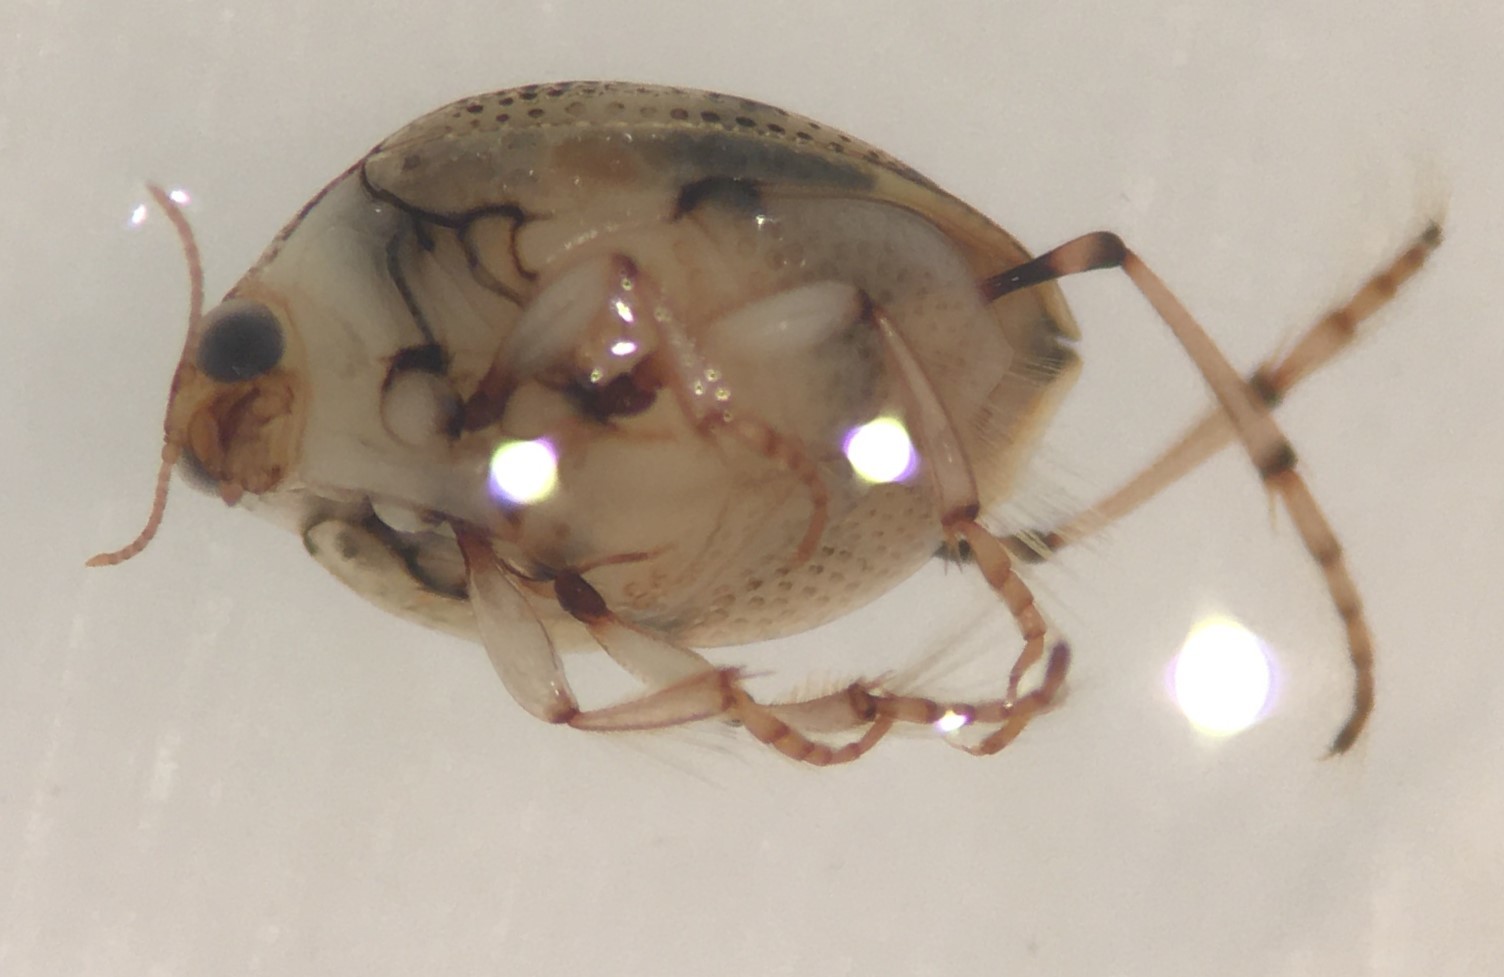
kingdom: Animalia
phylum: Arthropoda
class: Insecta
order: Coleoptera
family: Haliplidae
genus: Peltodytes
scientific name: Peltodytes duodecimpunctatus
